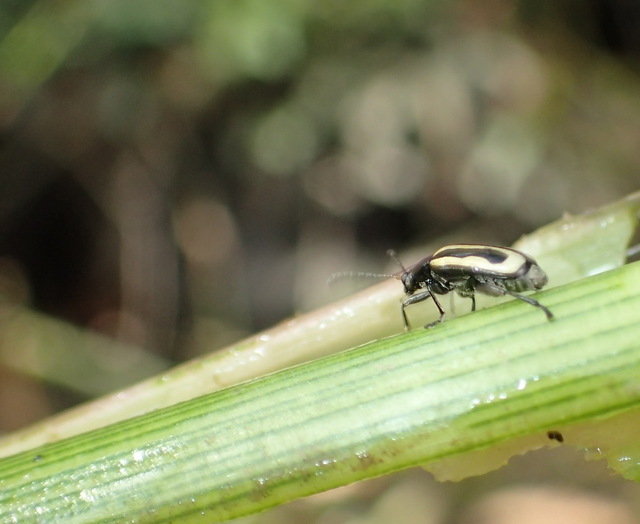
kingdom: Animalia
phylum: Arthropoda
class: Insecta
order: Coleoptera
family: Chrysomelidae
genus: Agasicles
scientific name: Agasicles hygrophila
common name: Alligatorweed flea beetle
